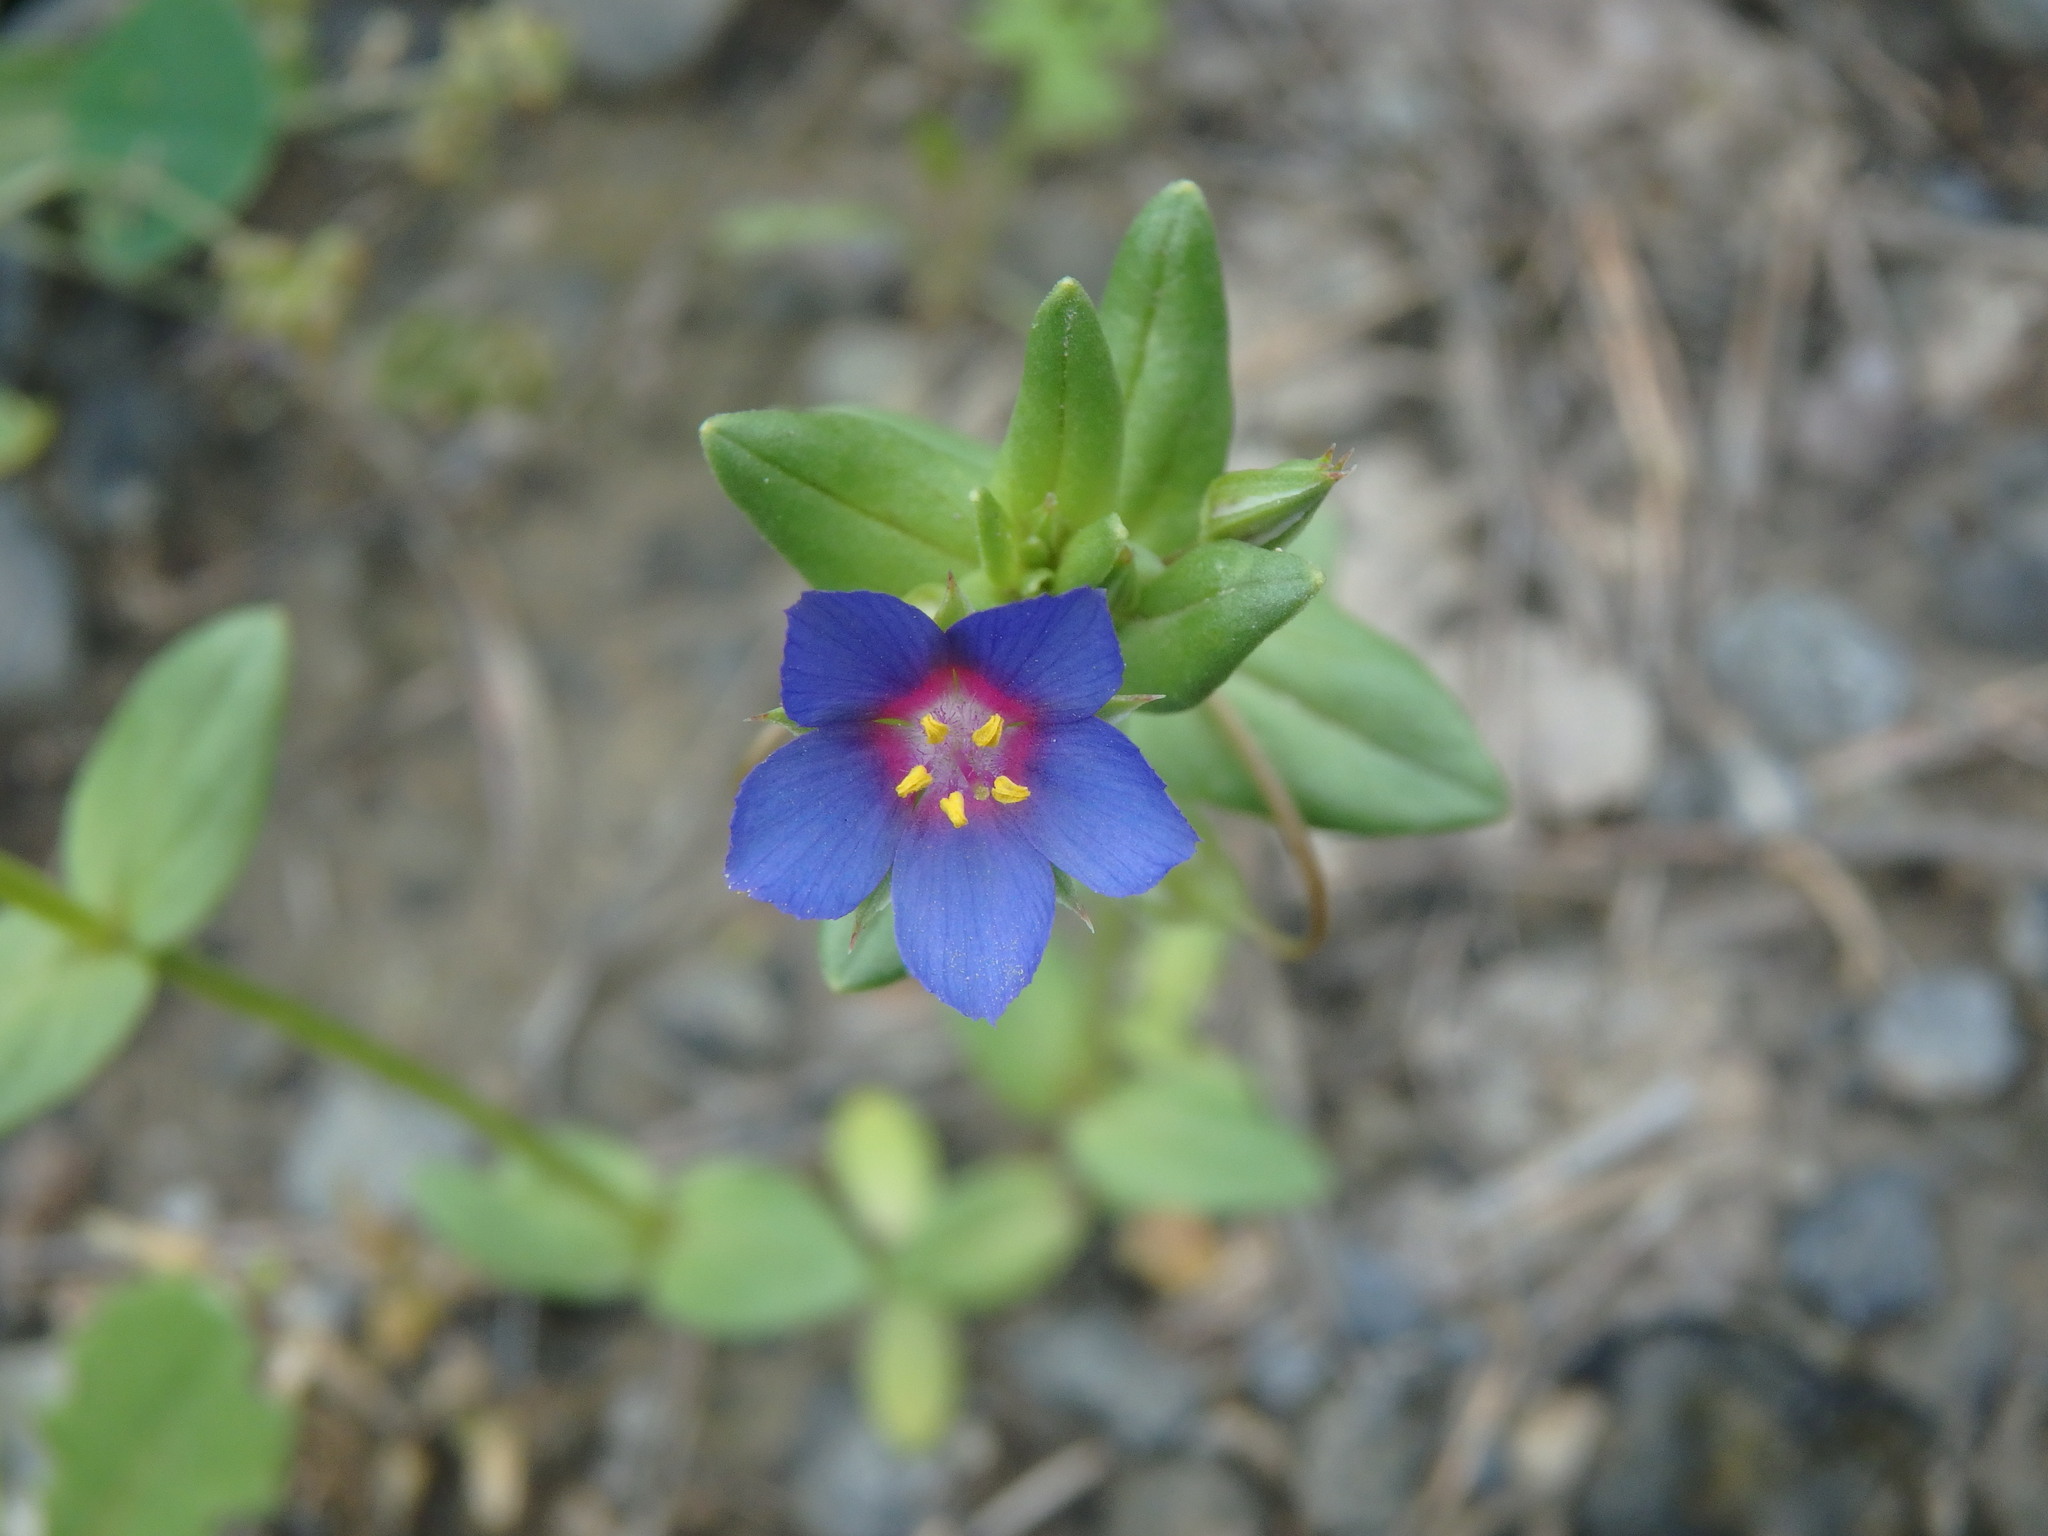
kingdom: Plantae
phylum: Tracheophyta
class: Magnoliopsida
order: Ericales
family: Primulaceae
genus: Lysimachia
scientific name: Lysimachia loeflingii
